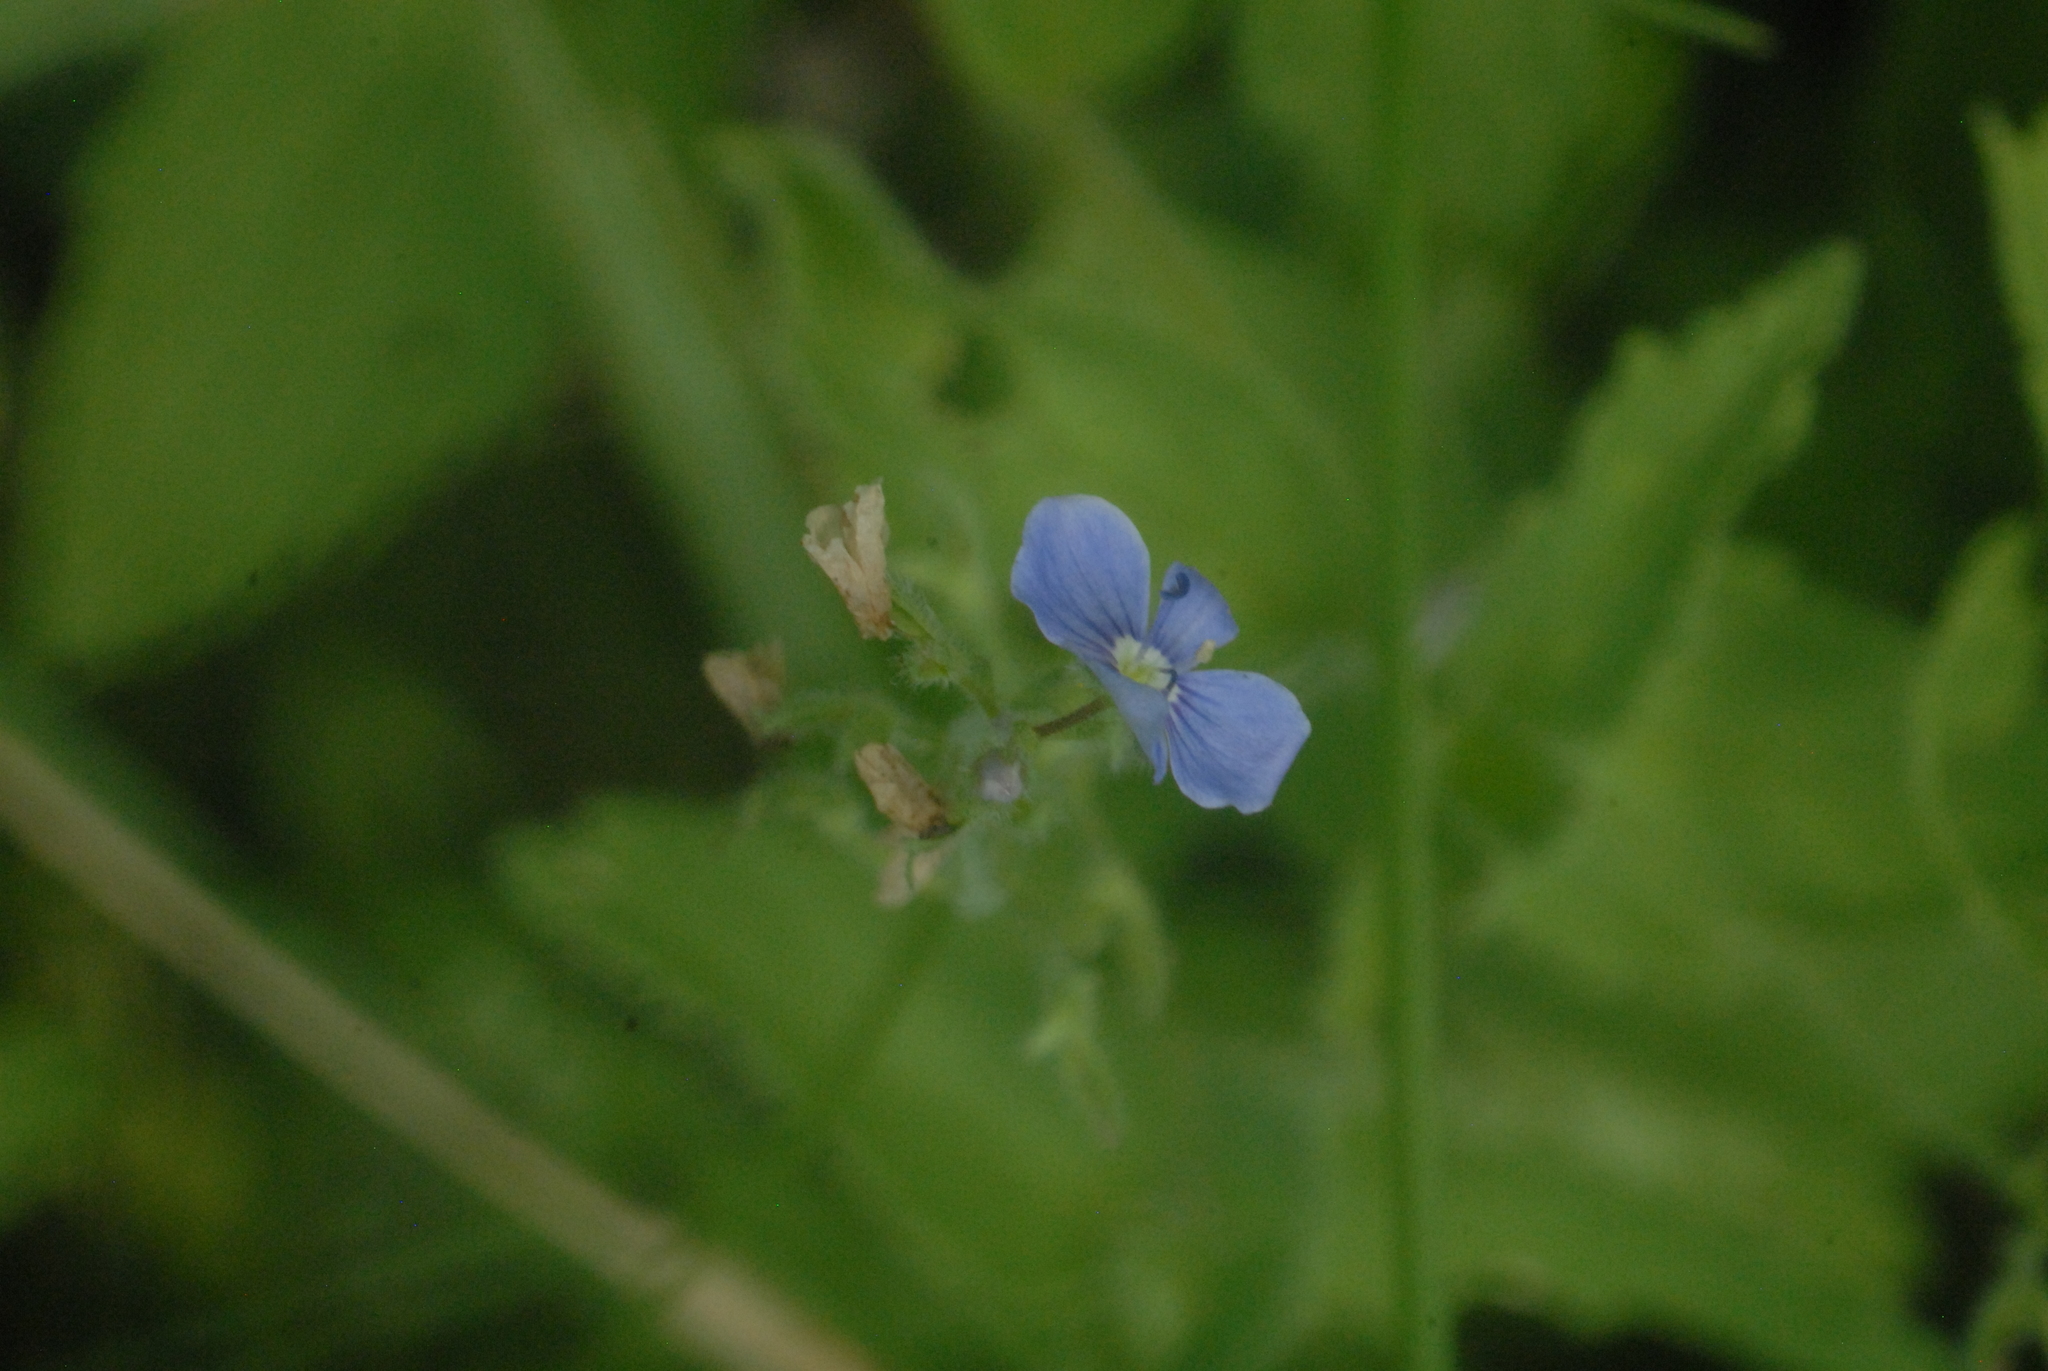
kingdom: Plantae
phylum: Tracheophyta
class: Magnoliopsida
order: Lamiales
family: Plantaginaceae
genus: Veronica
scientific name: Veronica chamaedrys
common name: Germander speedwell
